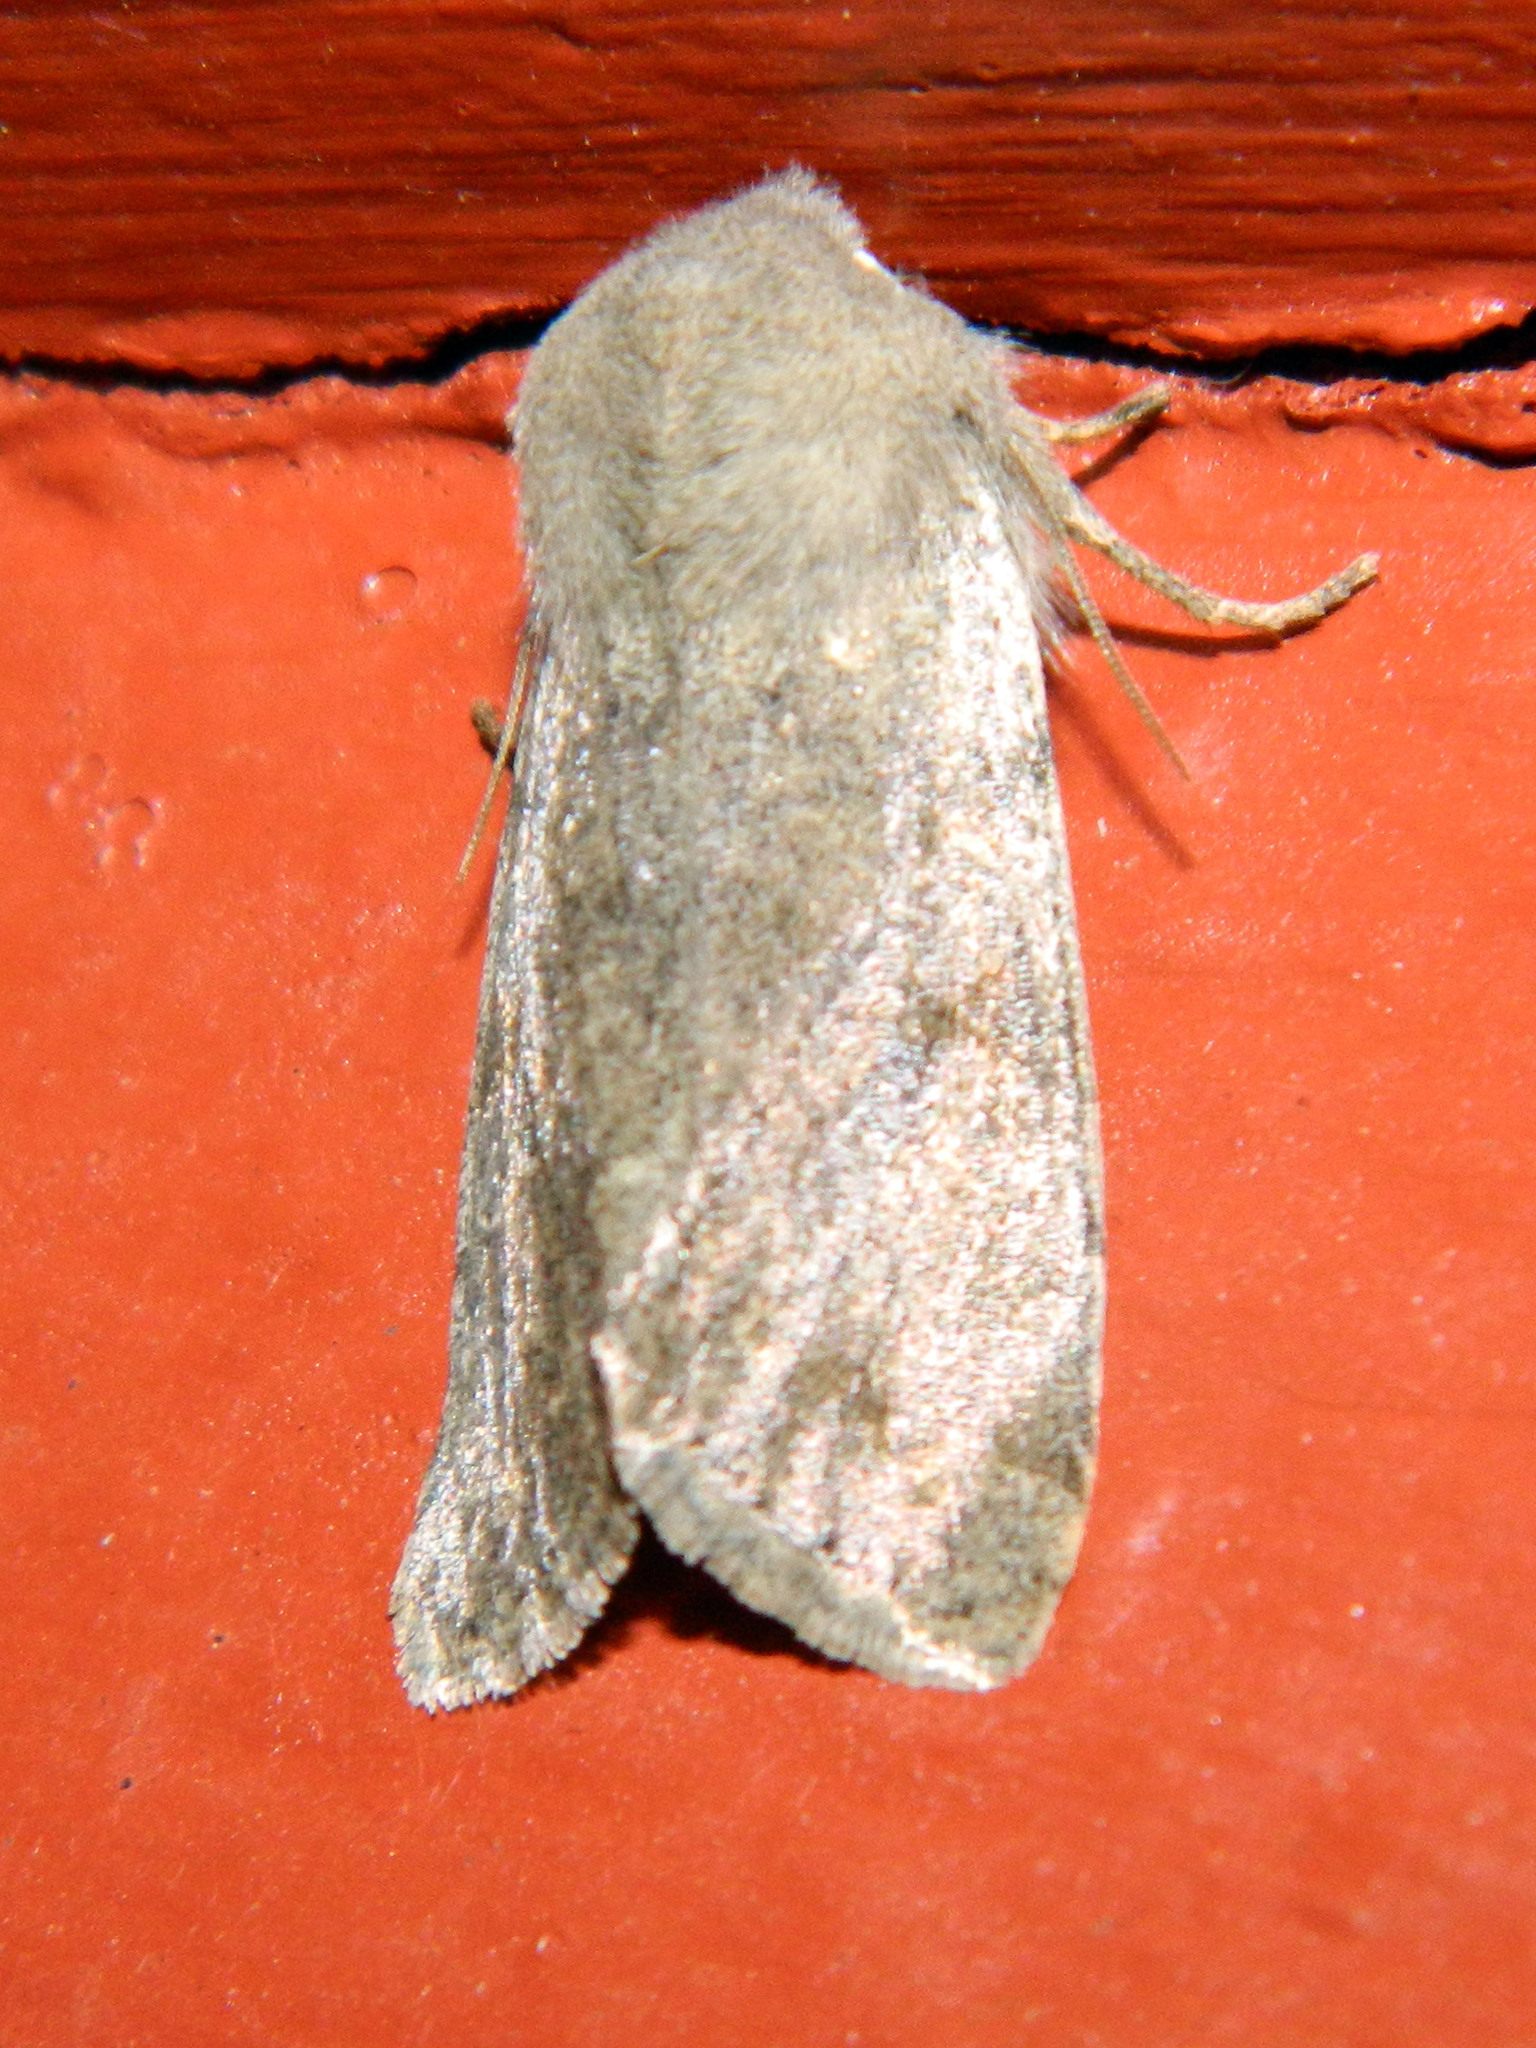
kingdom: Animalia
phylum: Arthropoda
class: Insecta
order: Lepidoptera
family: Noctuidae
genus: Orthosia
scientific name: Orthosia hibisci
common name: Green fruitworm
